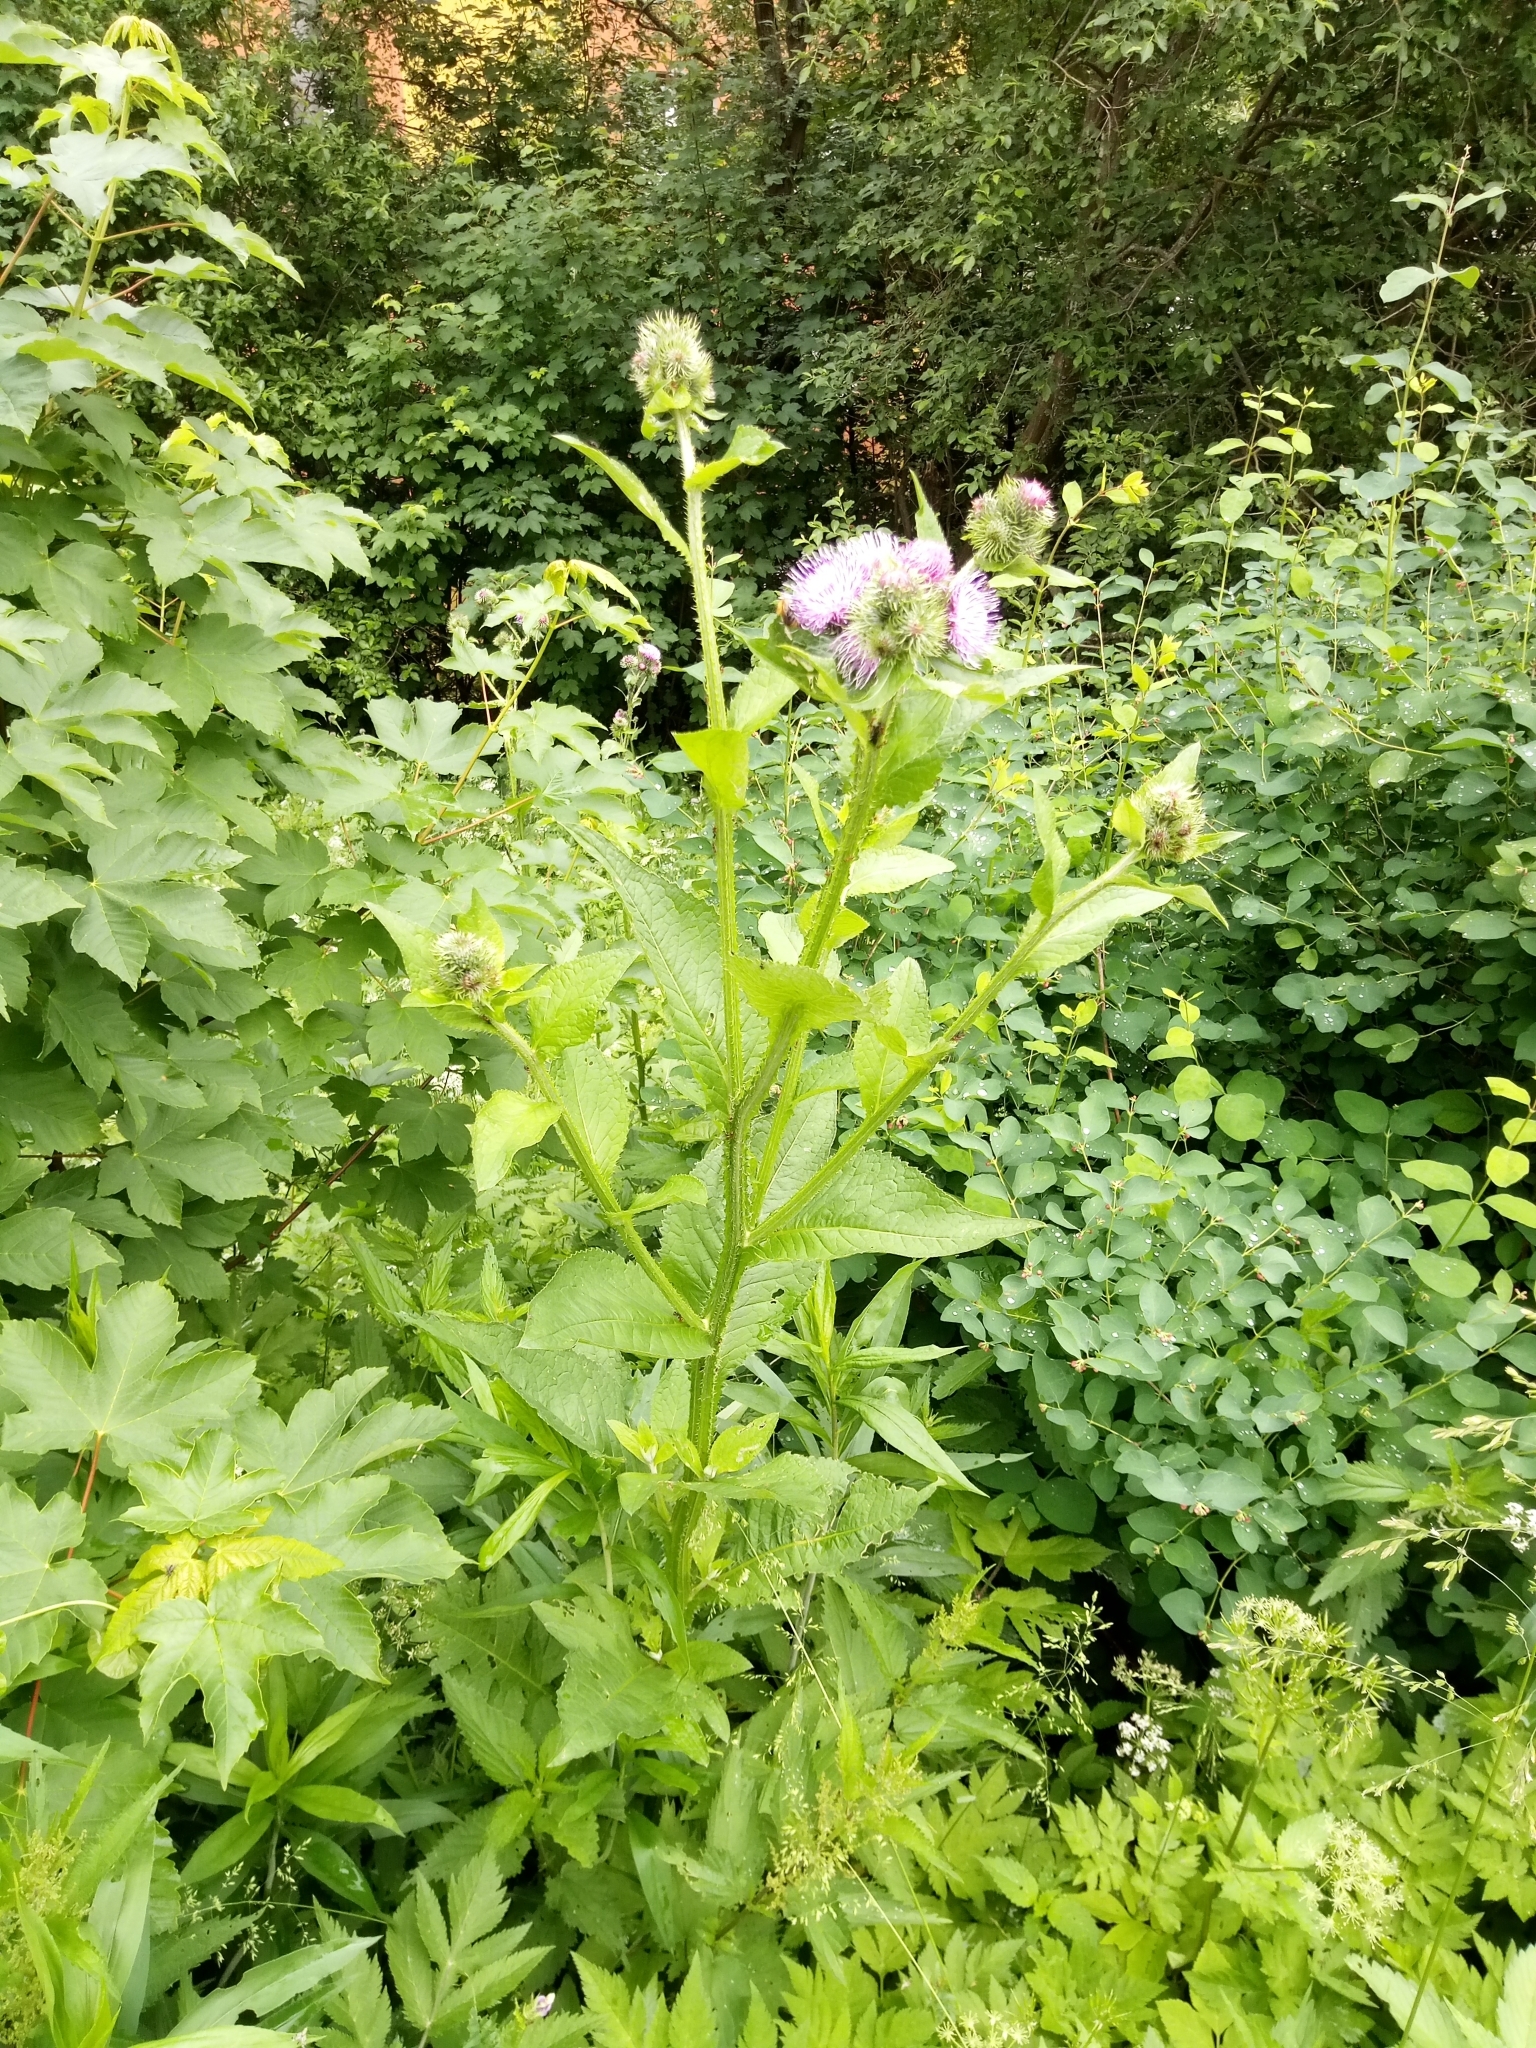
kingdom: Plantae
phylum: Tracheophyta
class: Magnoliopsida
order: Asterales
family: Asteraceae
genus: Carduus
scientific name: Carduus personata
